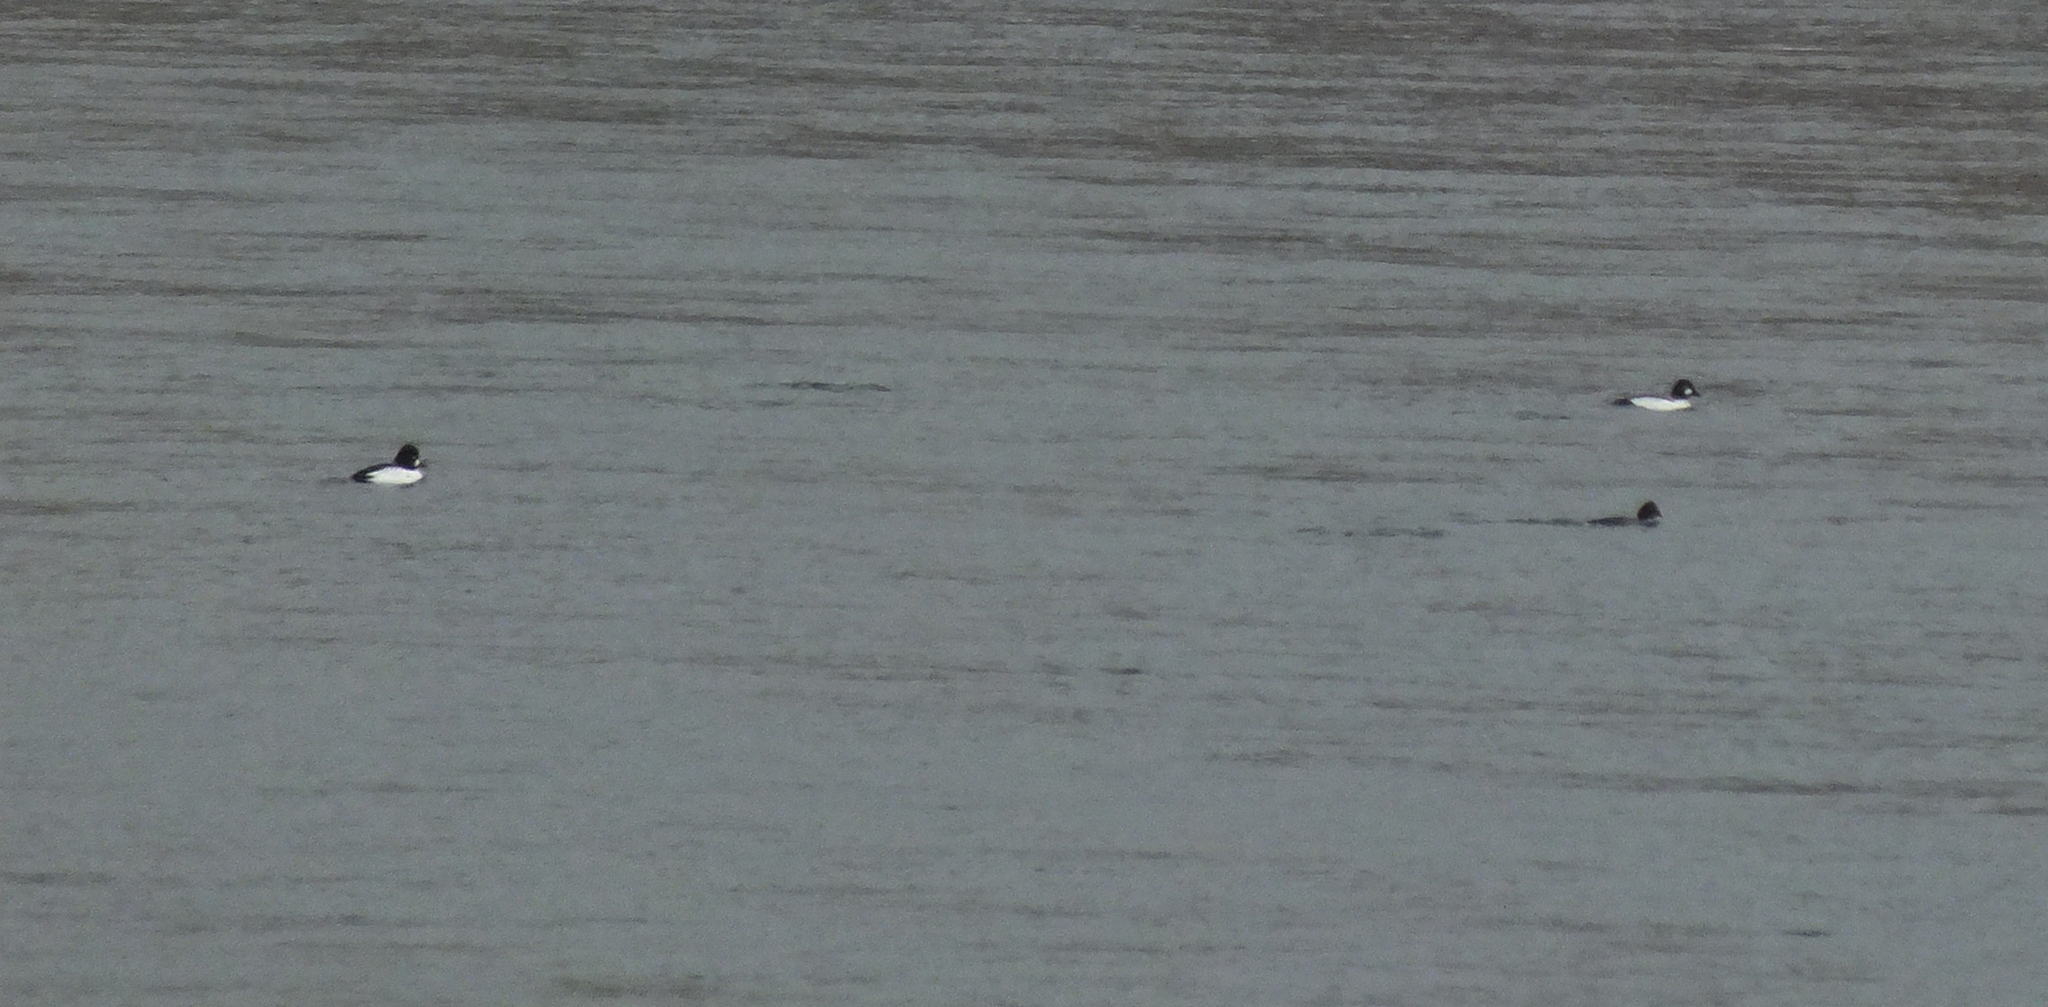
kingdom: Animalia
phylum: Chordata
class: Aves
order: Anseriformes
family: Anatidae
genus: Bucephala
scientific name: Bucephala clangula
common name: Common goldeneye
